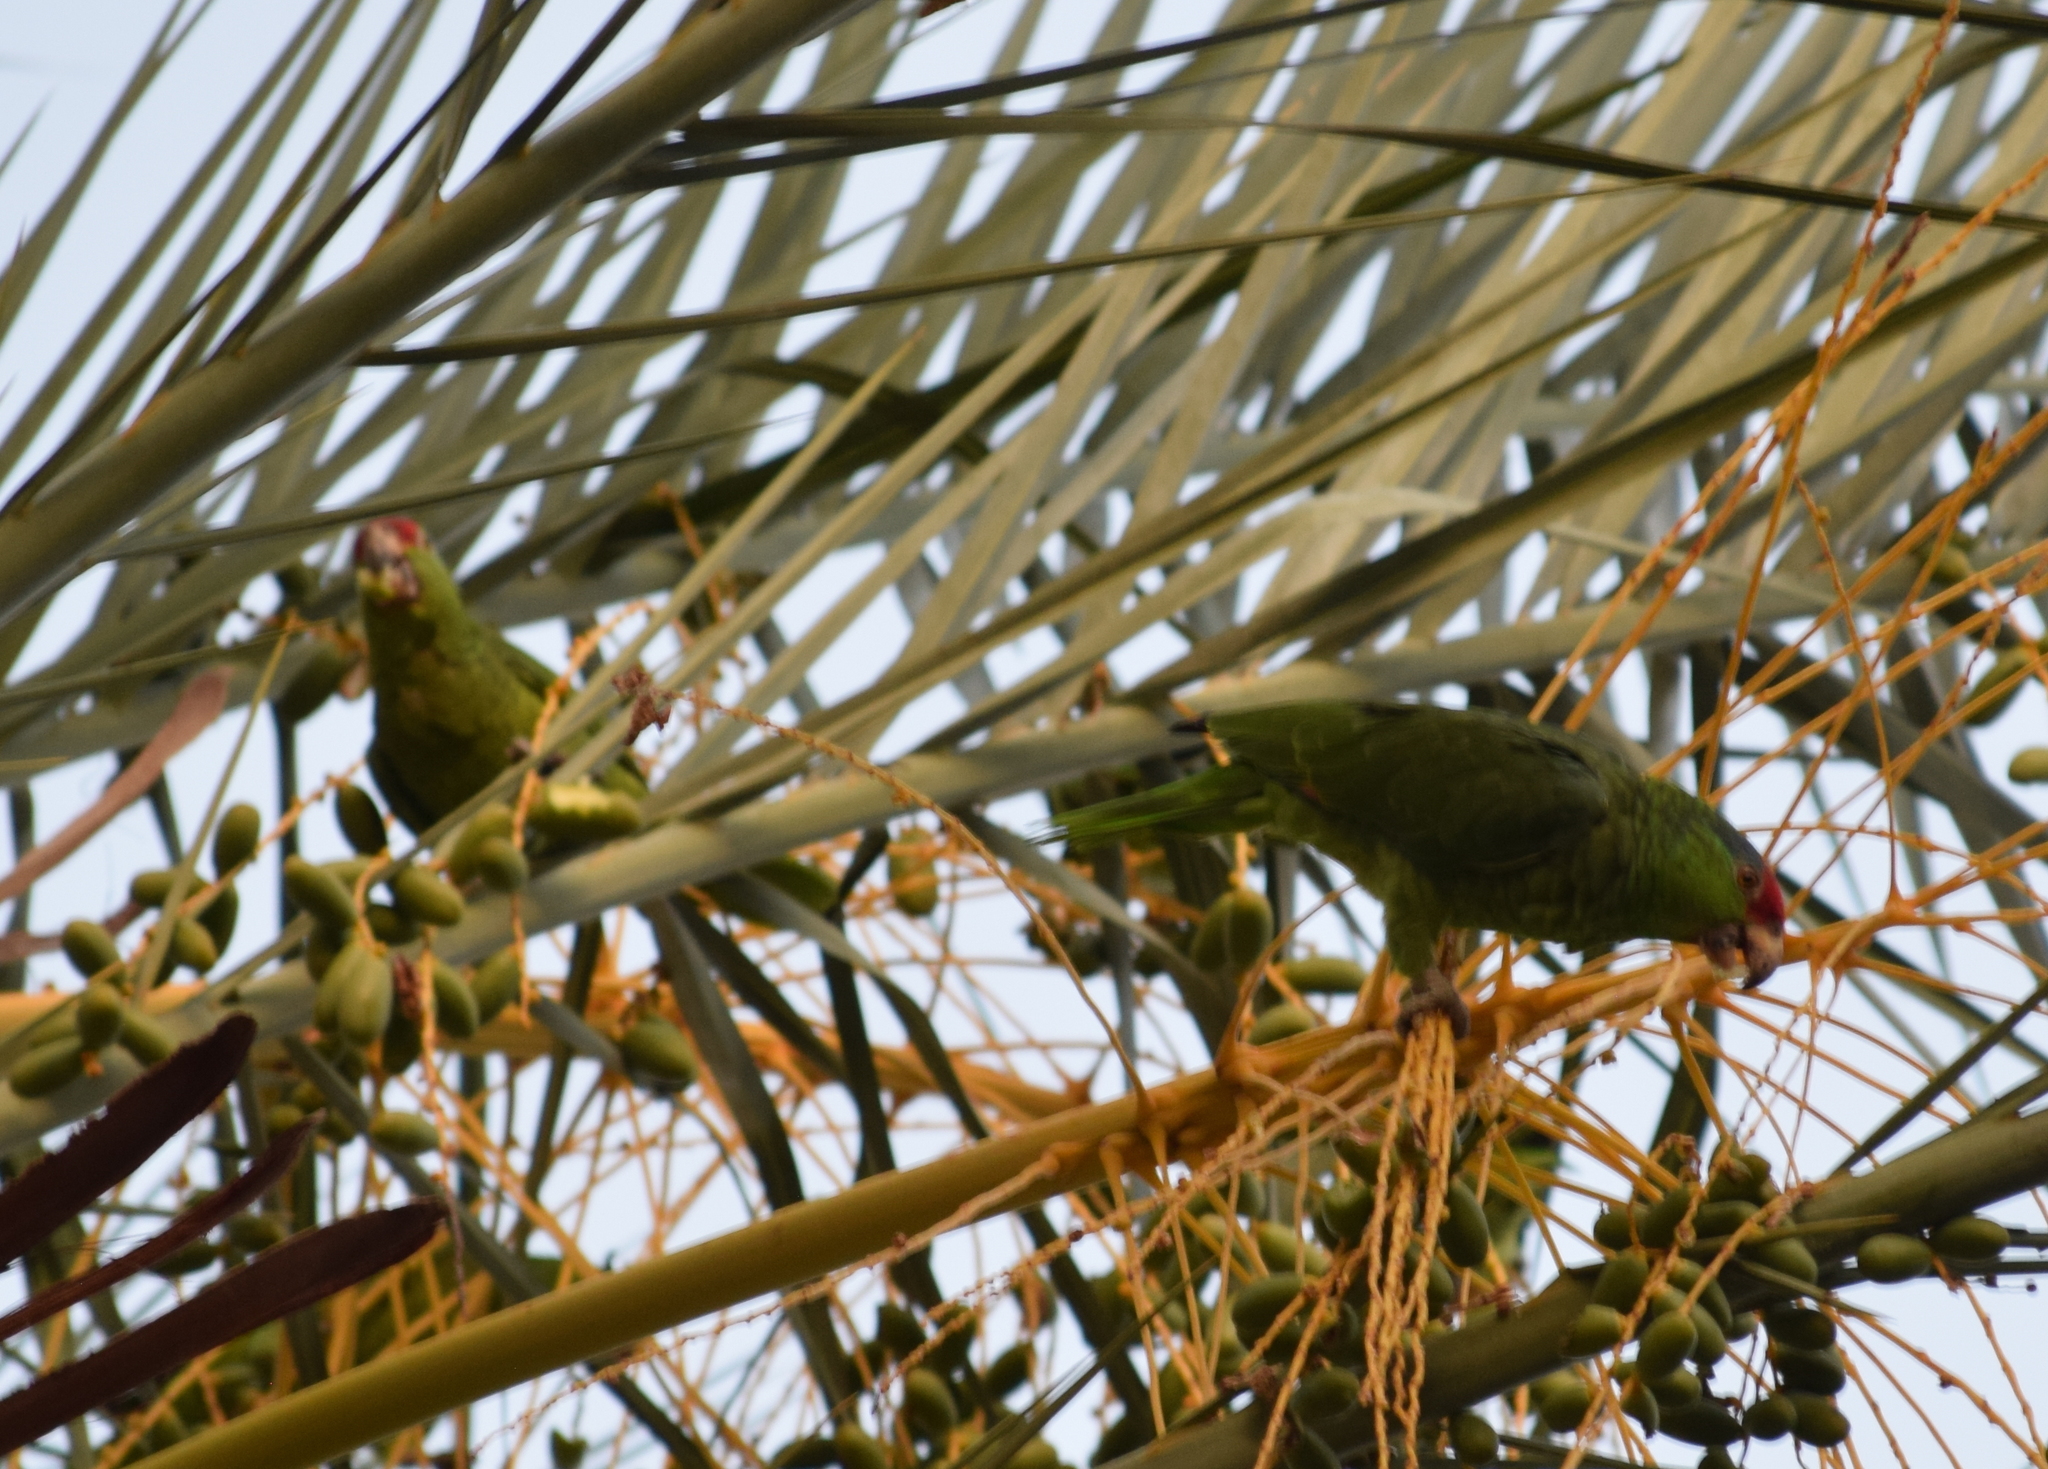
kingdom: Animalia
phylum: Chordata
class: Aves
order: Psittaciformes
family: Psittacidae
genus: Amazona
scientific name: Amazona viridigenalis
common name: Red-crowned amazon
